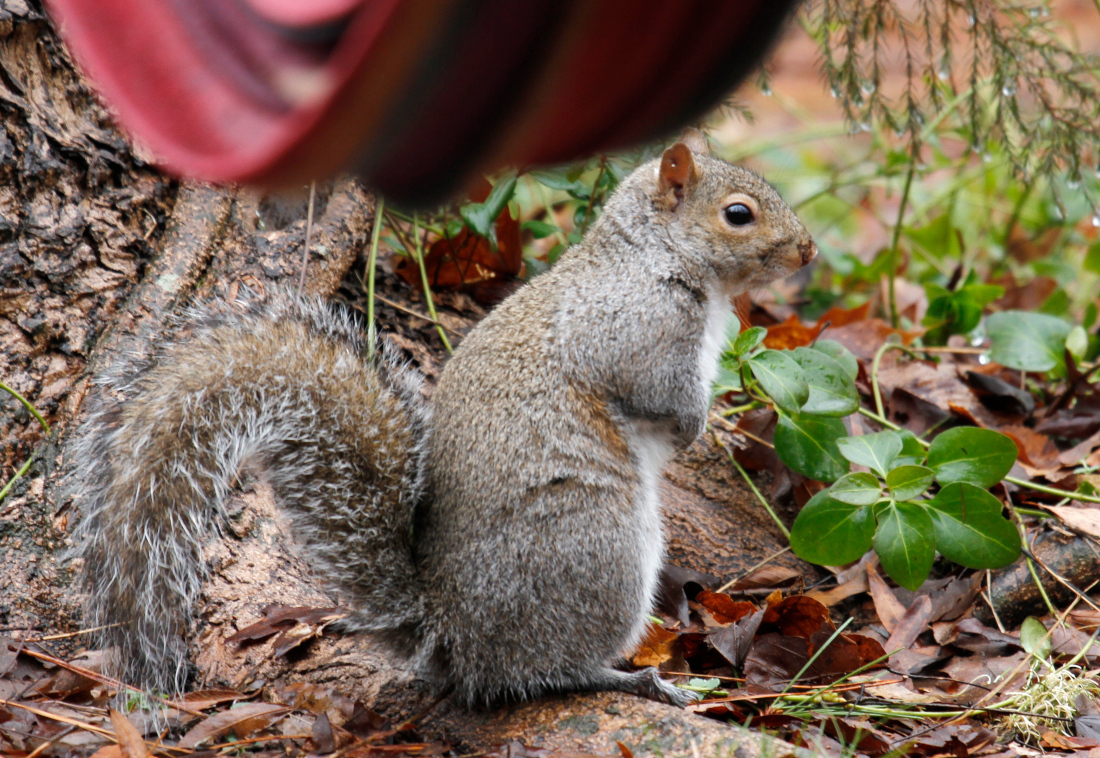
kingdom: Animalia
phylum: Chordata
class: Mammalia
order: Rodentia
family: Sciuridae
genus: Sciurus
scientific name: Sciurus carolinensis
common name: Eastern gray squirrel
